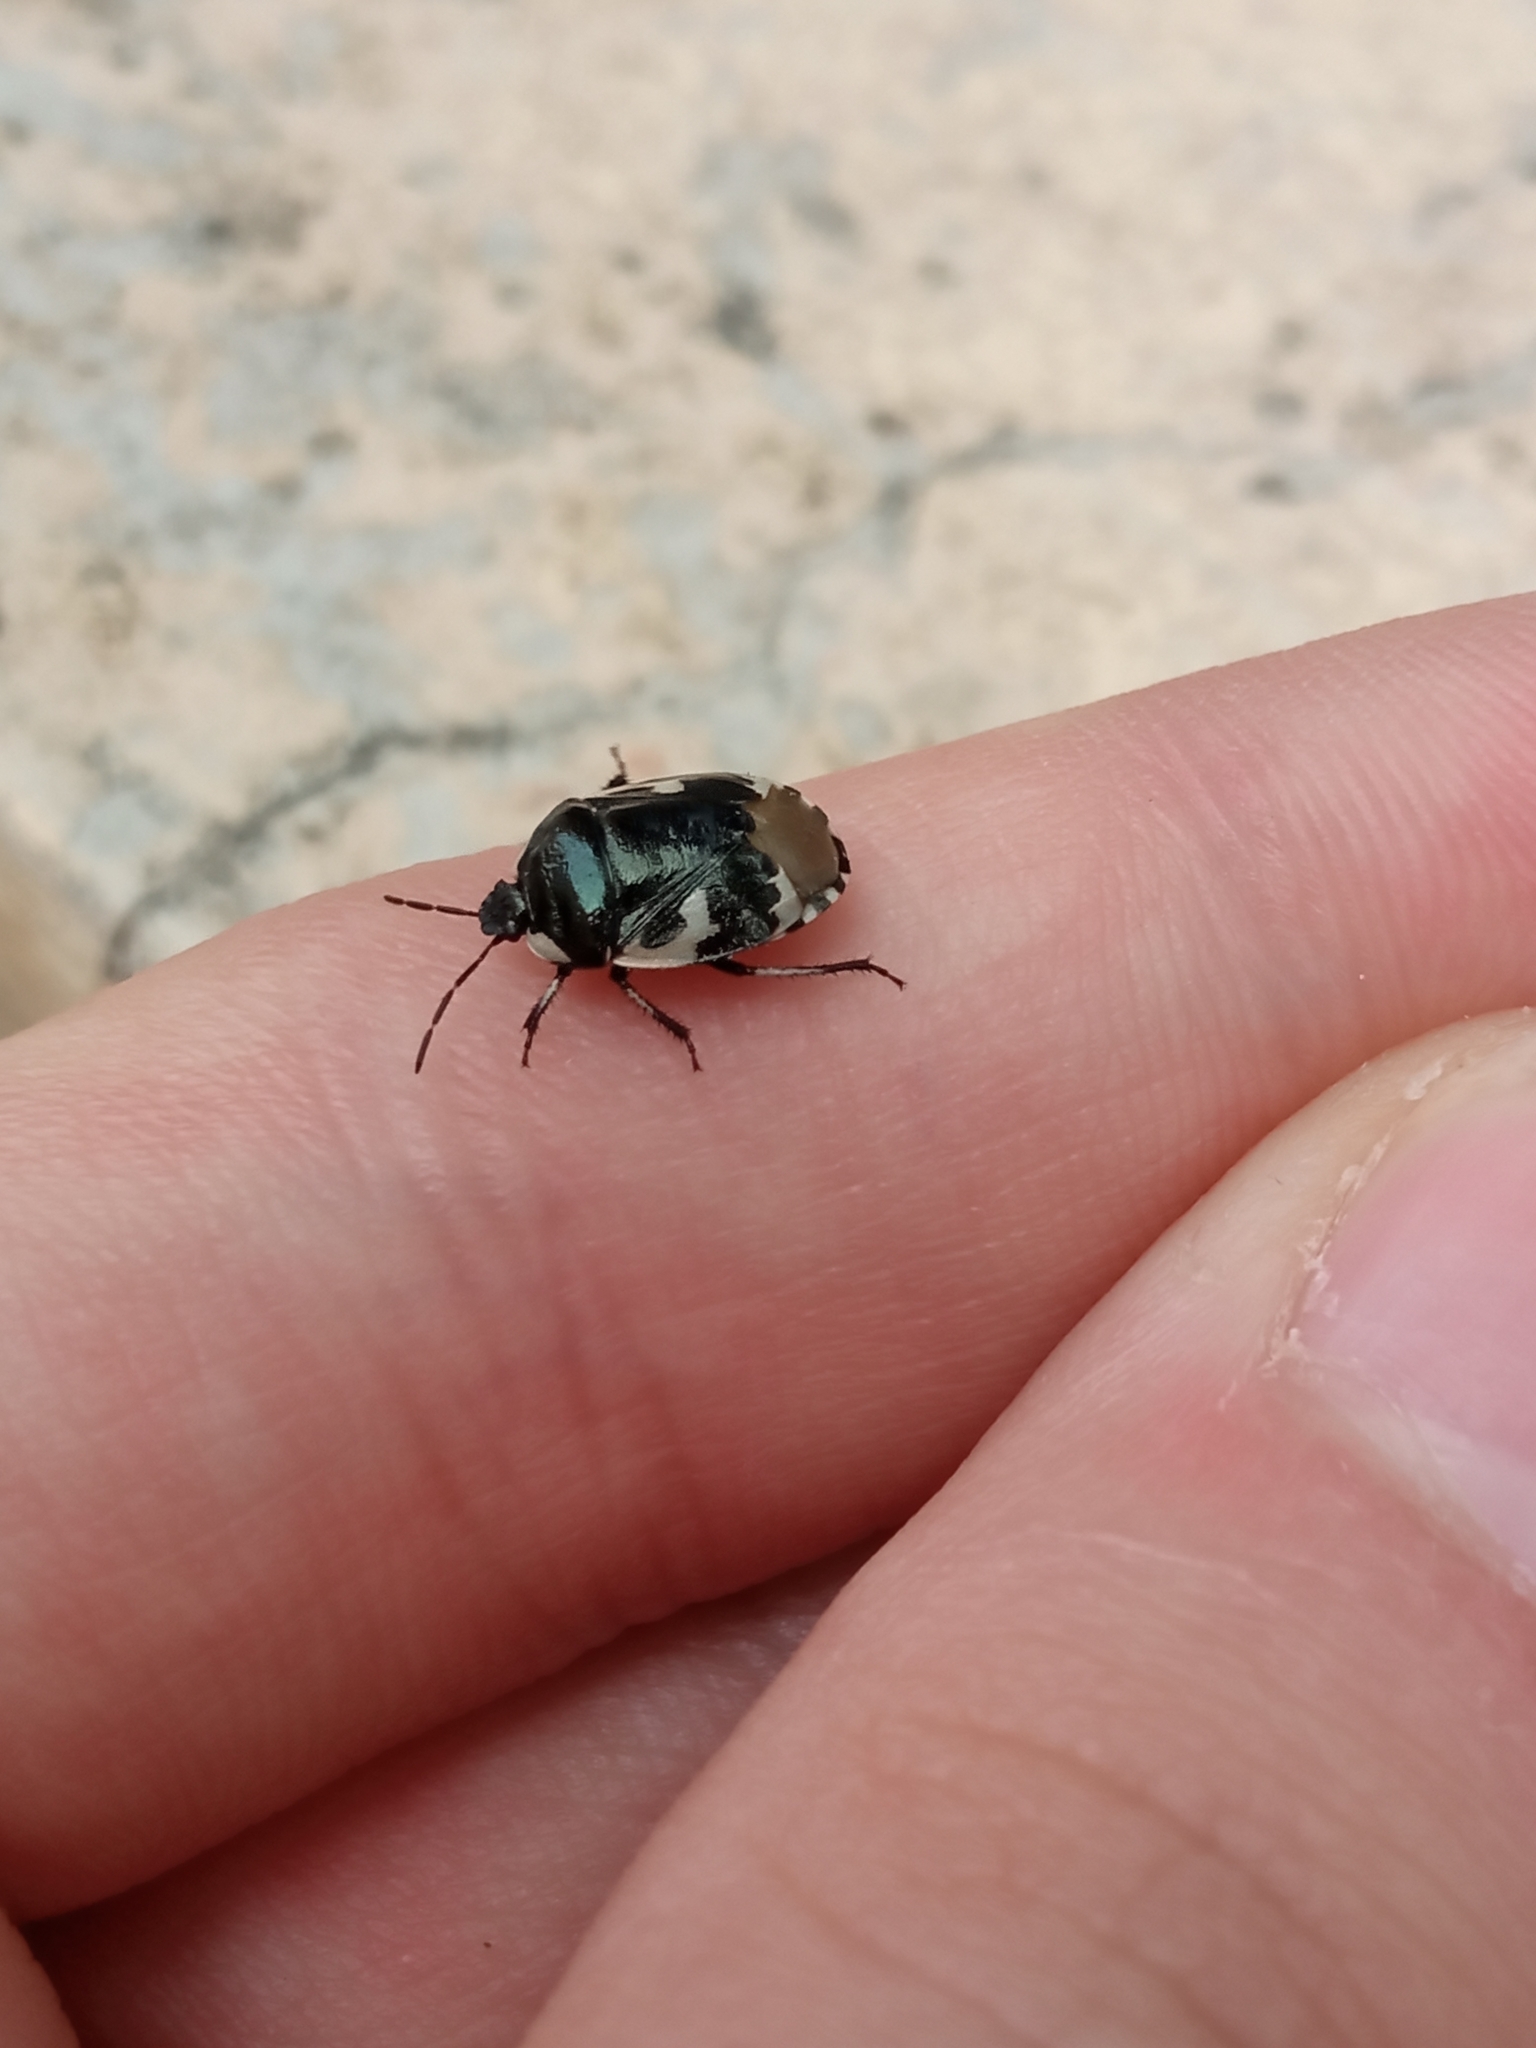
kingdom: Animalia
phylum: Arthropoda
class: Insecta
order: Hemiptera
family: Cydnidae
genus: Tritomegas
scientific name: Tritomegas bicolor
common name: Pied shieldbug
